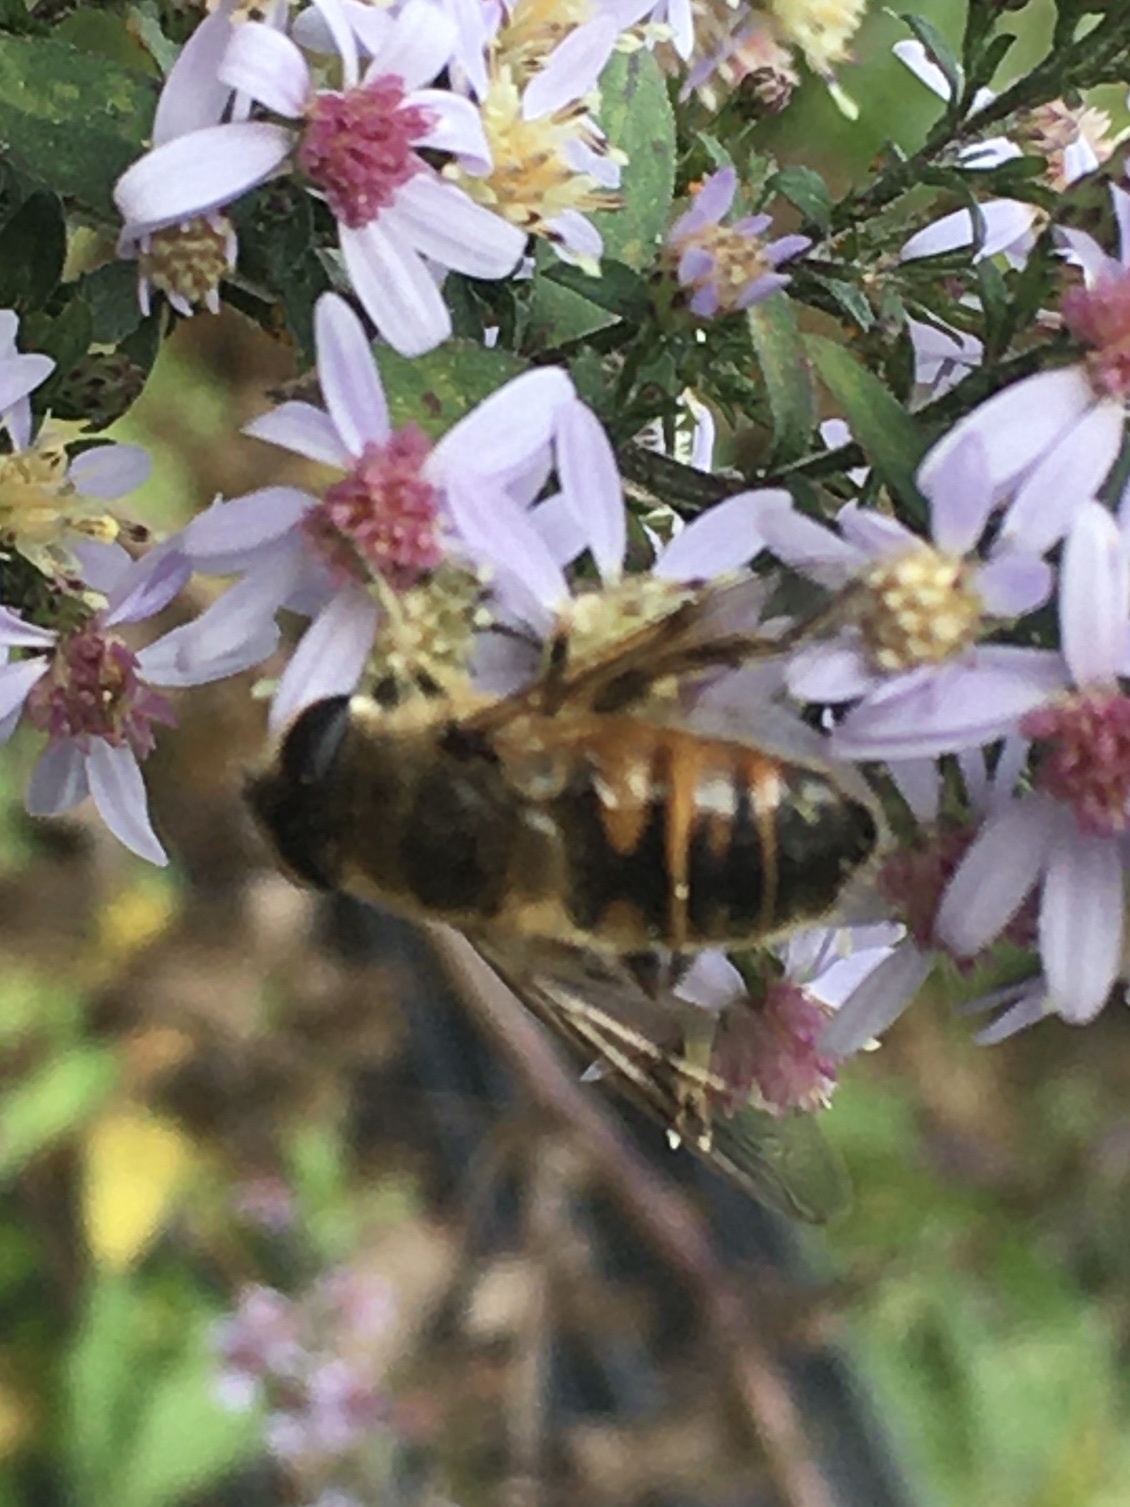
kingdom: Animalia
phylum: Arthropoda
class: Insecta
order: Diptera
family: Syrphidae
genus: Eristalis
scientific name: Eristalis tenax
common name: Drone fly
